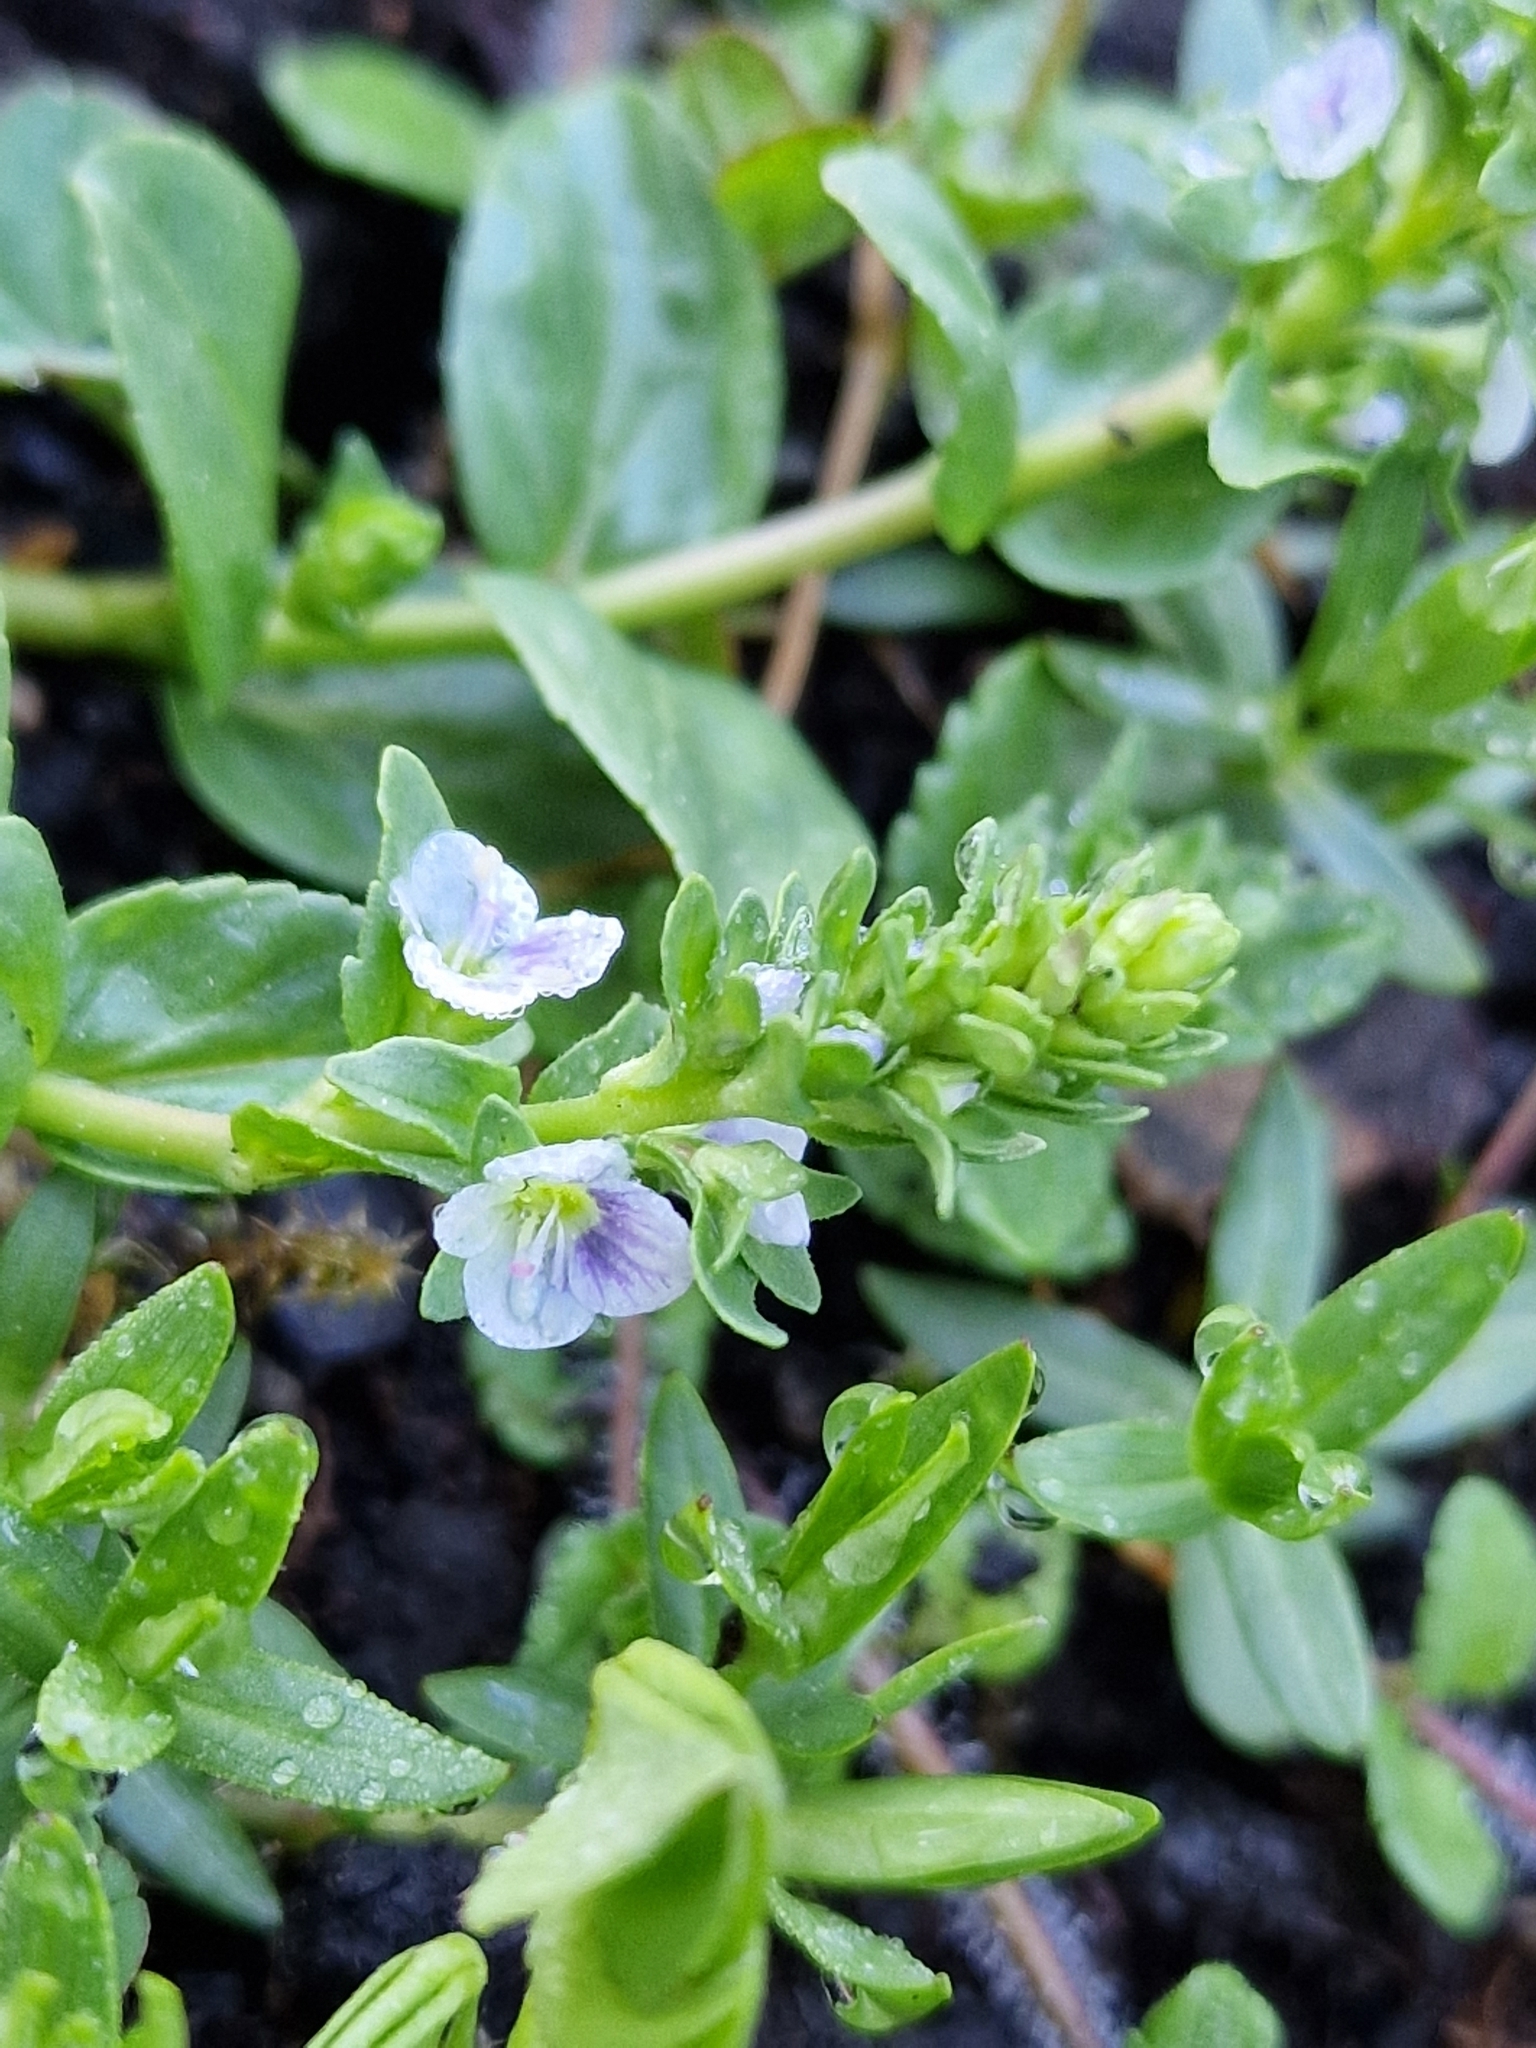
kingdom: Plantae
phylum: Tracheophyta
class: Magnoliopsida
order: Lamiales
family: Plantaginaceae
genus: Veronica
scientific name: Veronica serpyllifolia
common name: Thyme-leaved speedwell
